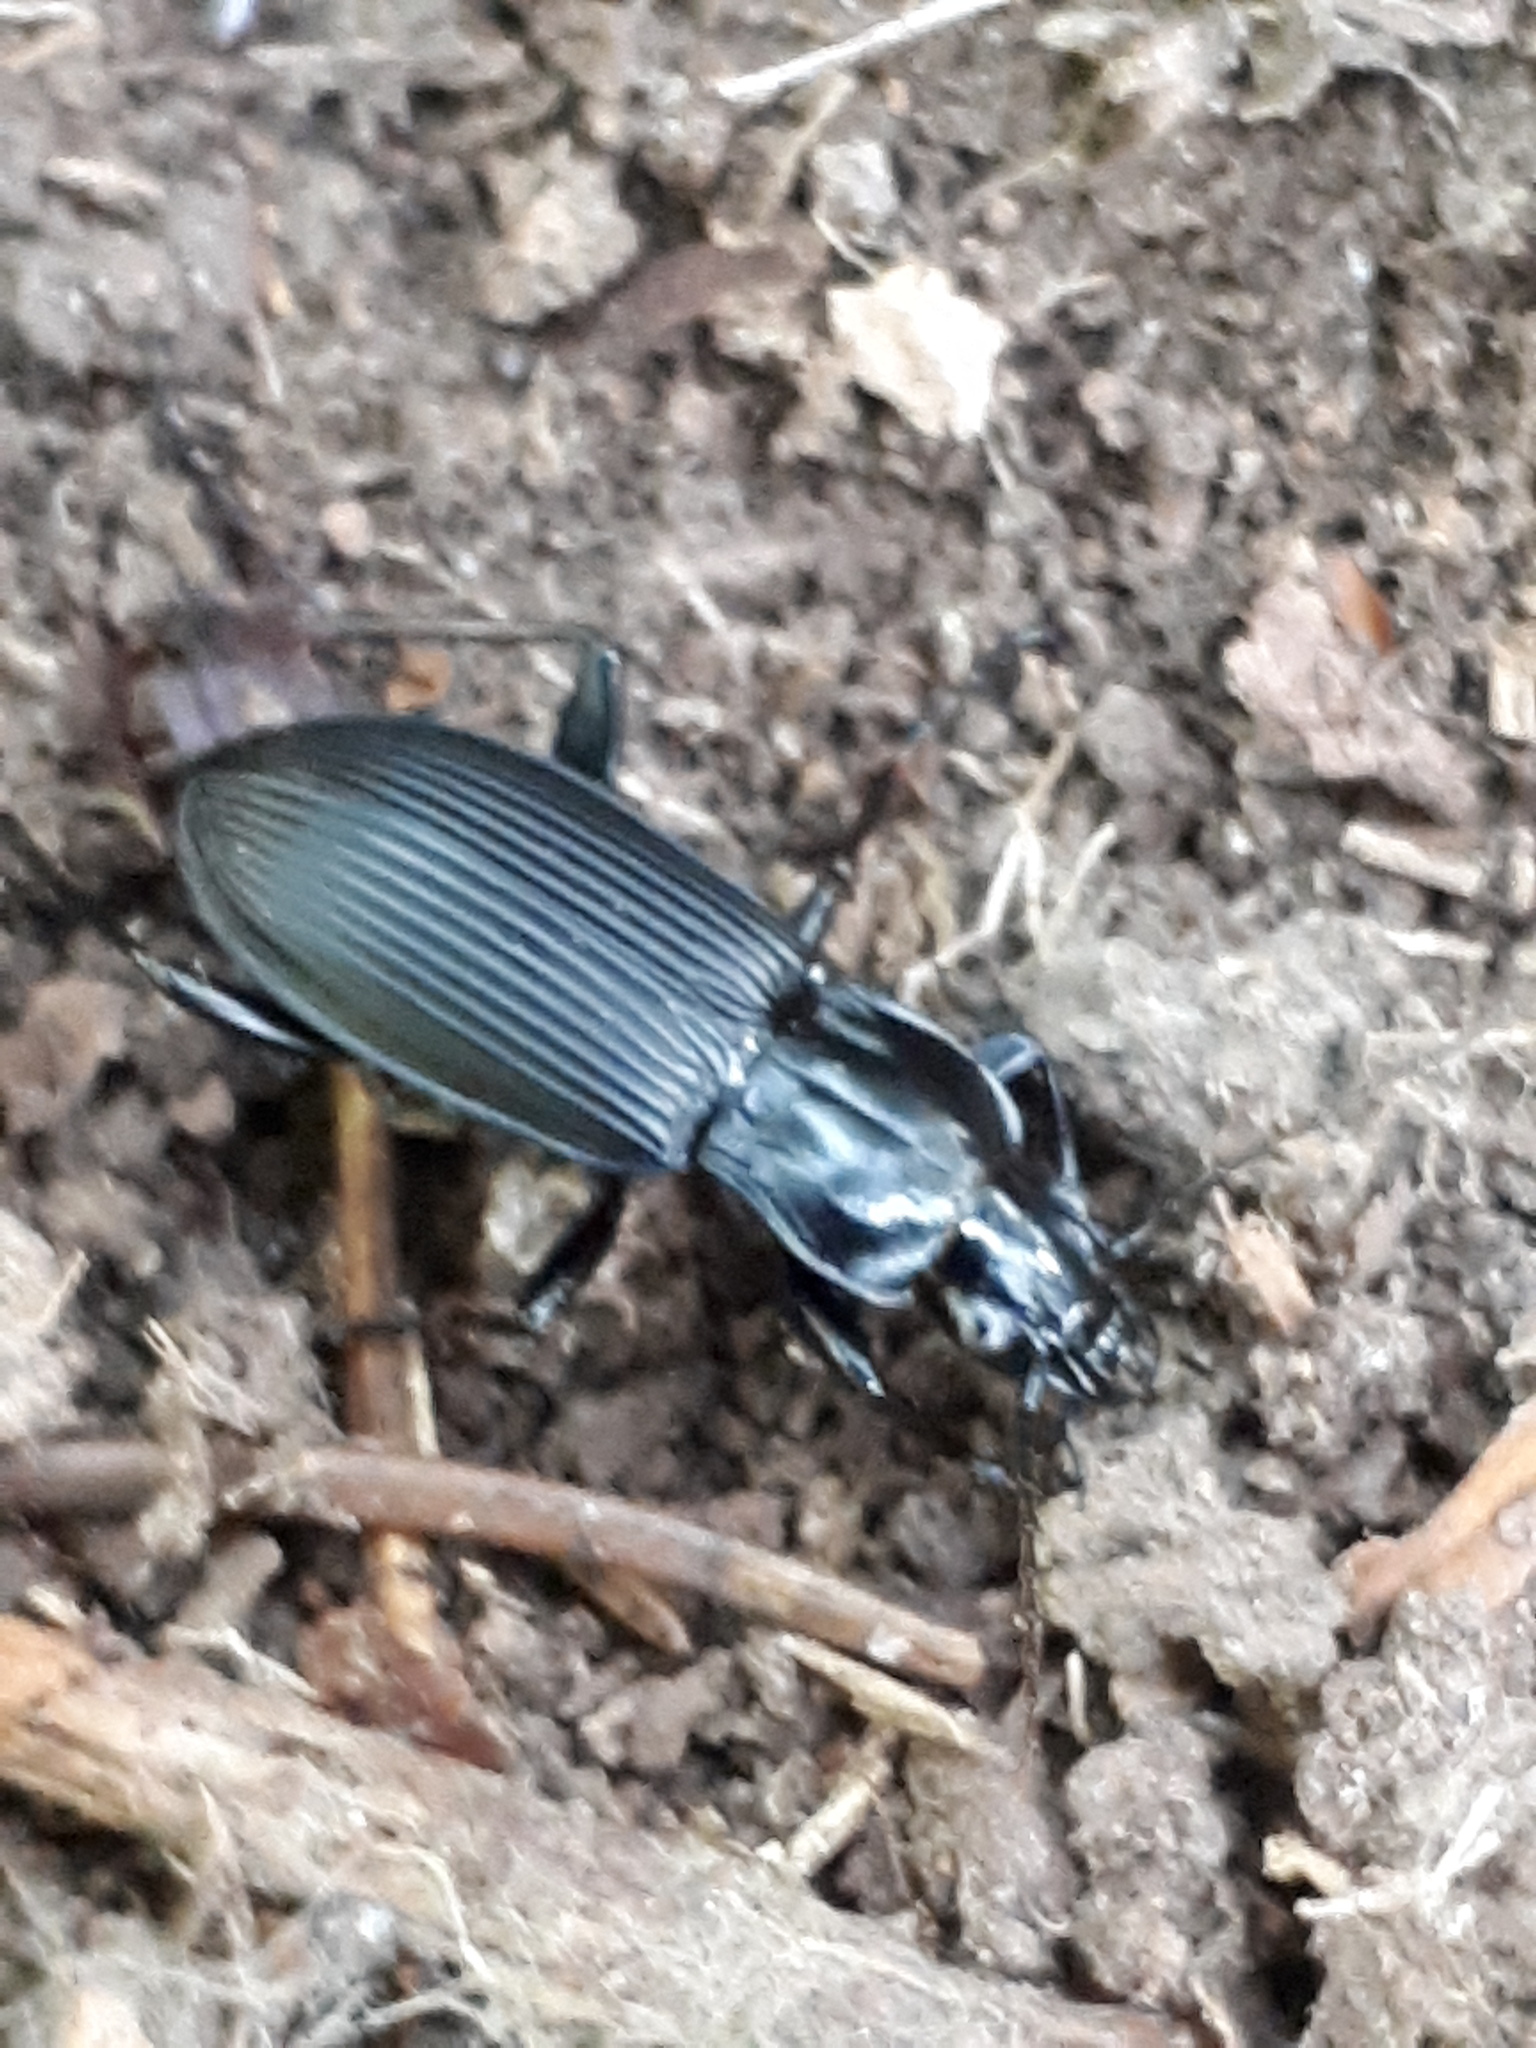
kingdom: Animalia
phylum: Arthropoda
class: Insecta
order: Coleoptera
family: Carabidae
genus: Pterostichus
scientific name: Pterostichus niger
